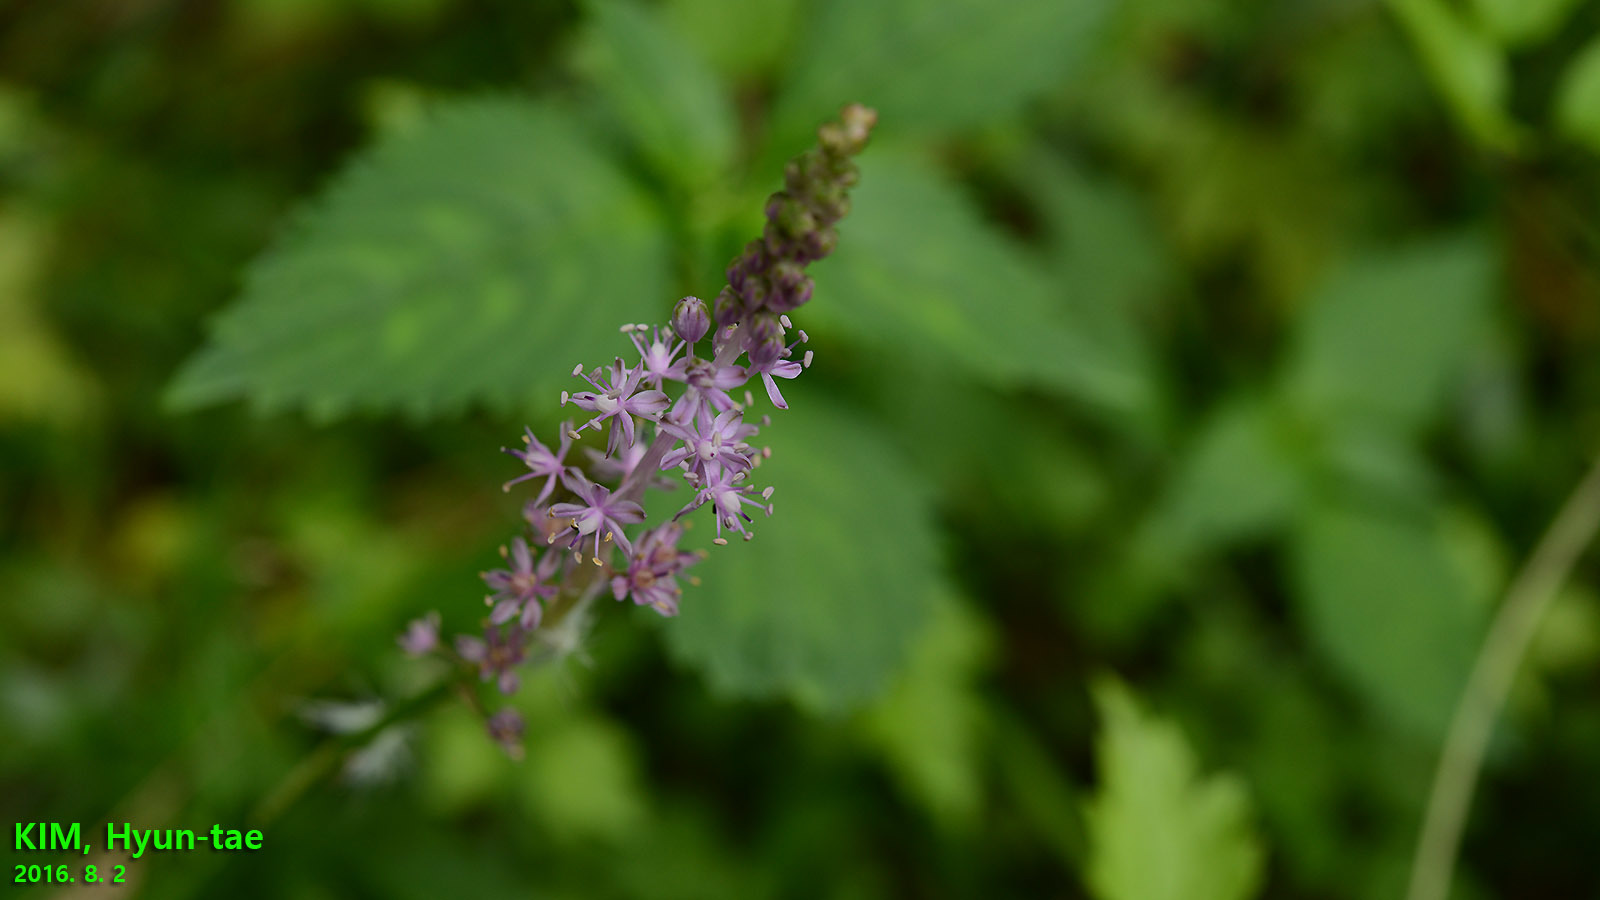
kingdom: Plantae
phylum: Tracheophyta
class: Liliopsida
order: Asparagales
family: Asparagaceae
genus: Barnardia
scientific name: Barnardia japonica
